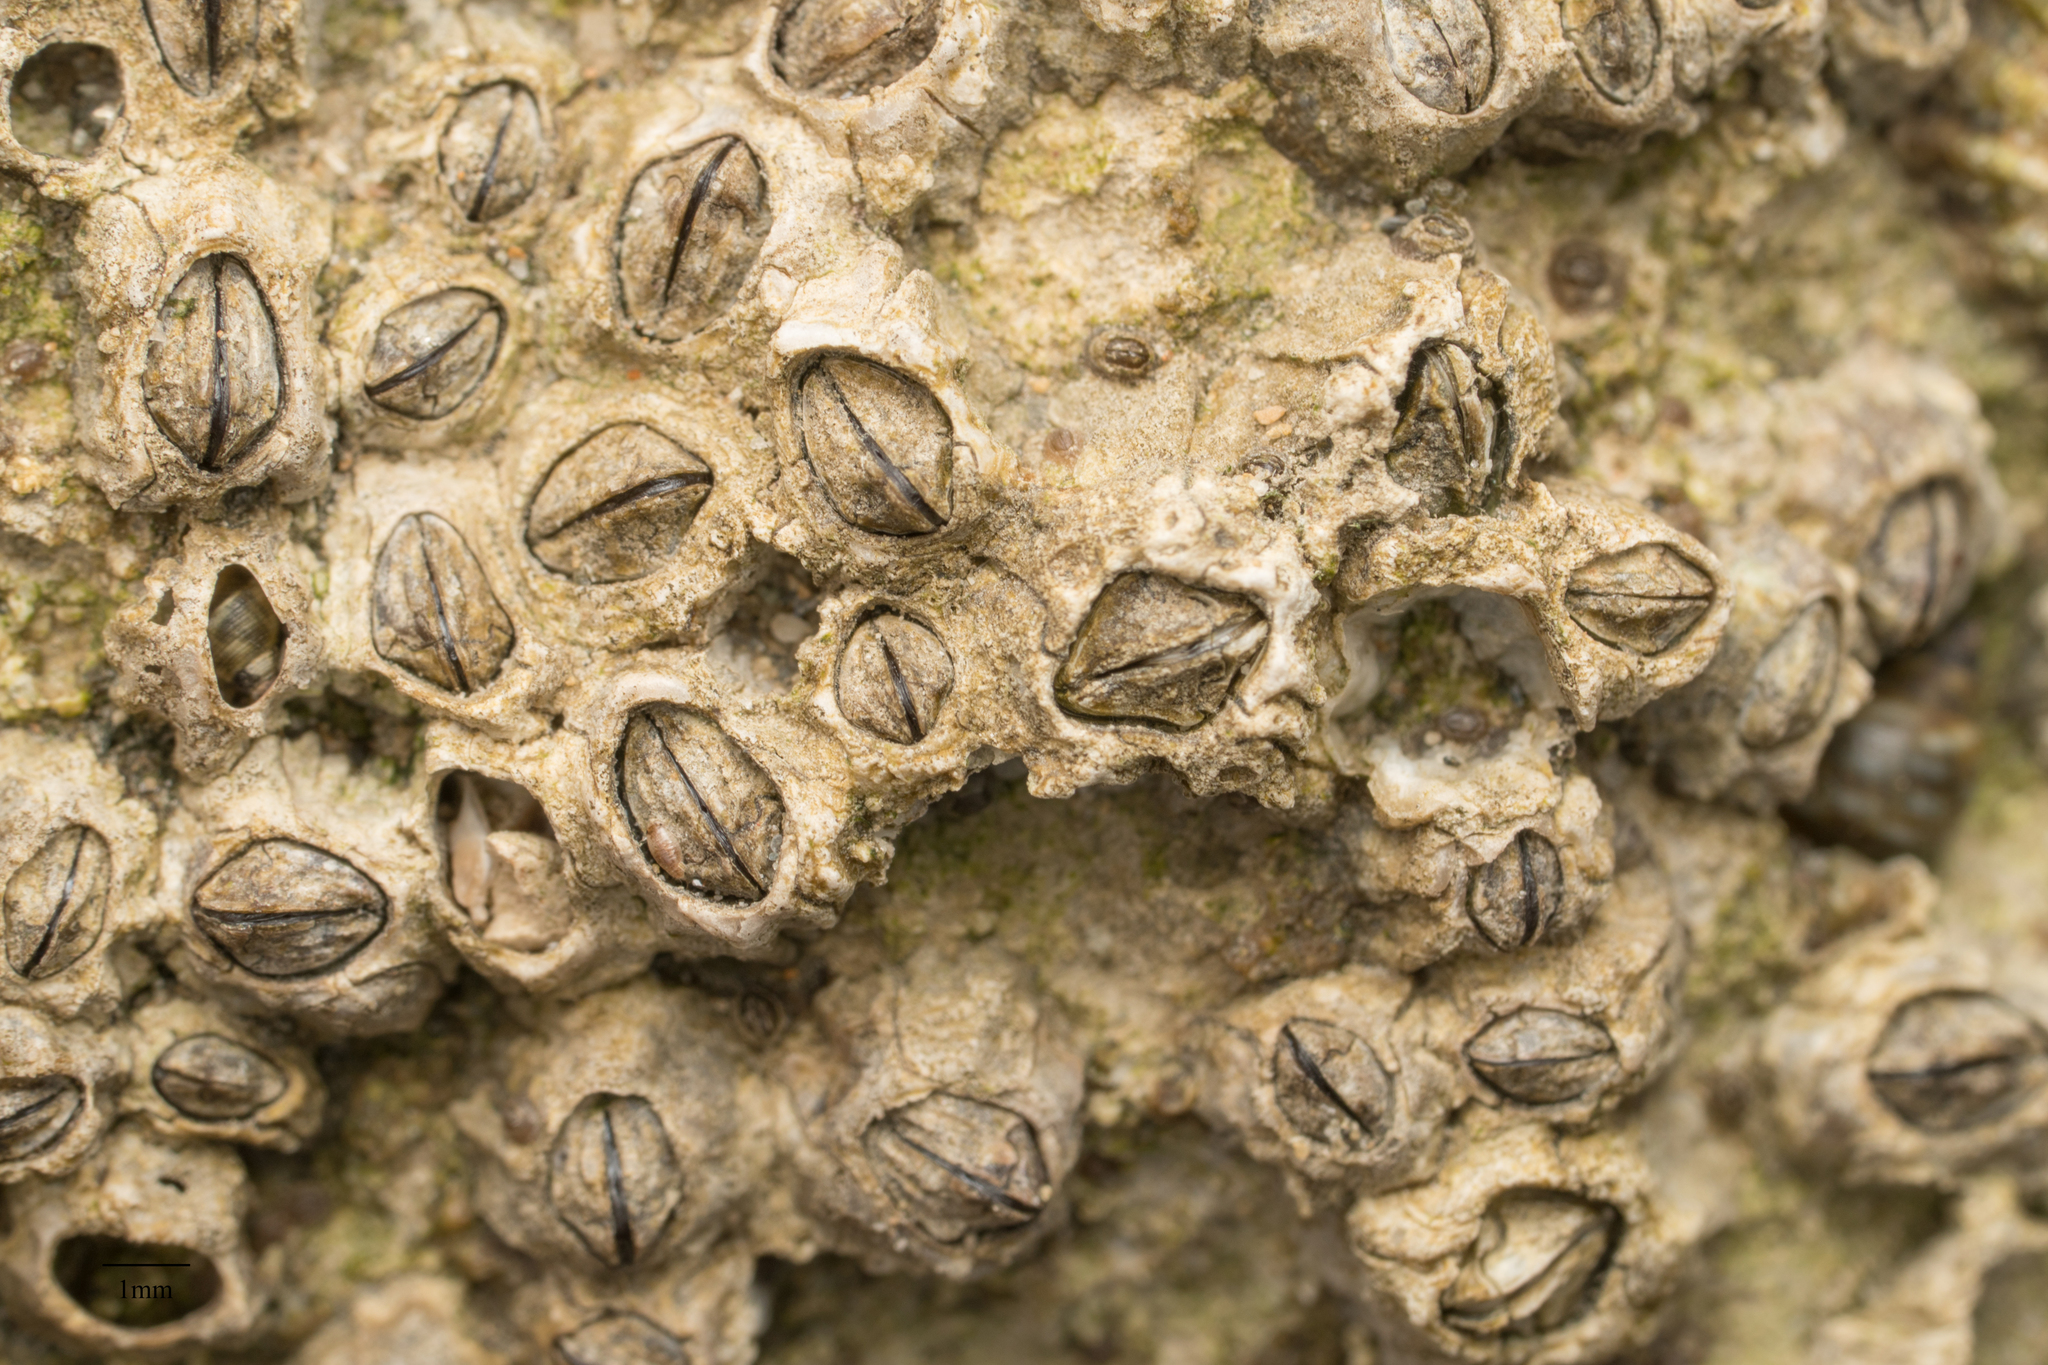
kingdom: Animalia
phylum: Arthropoda
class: Maxillopoda
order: Sessilia
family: Balanidae
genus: Balanus
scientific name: Balanus glandula
